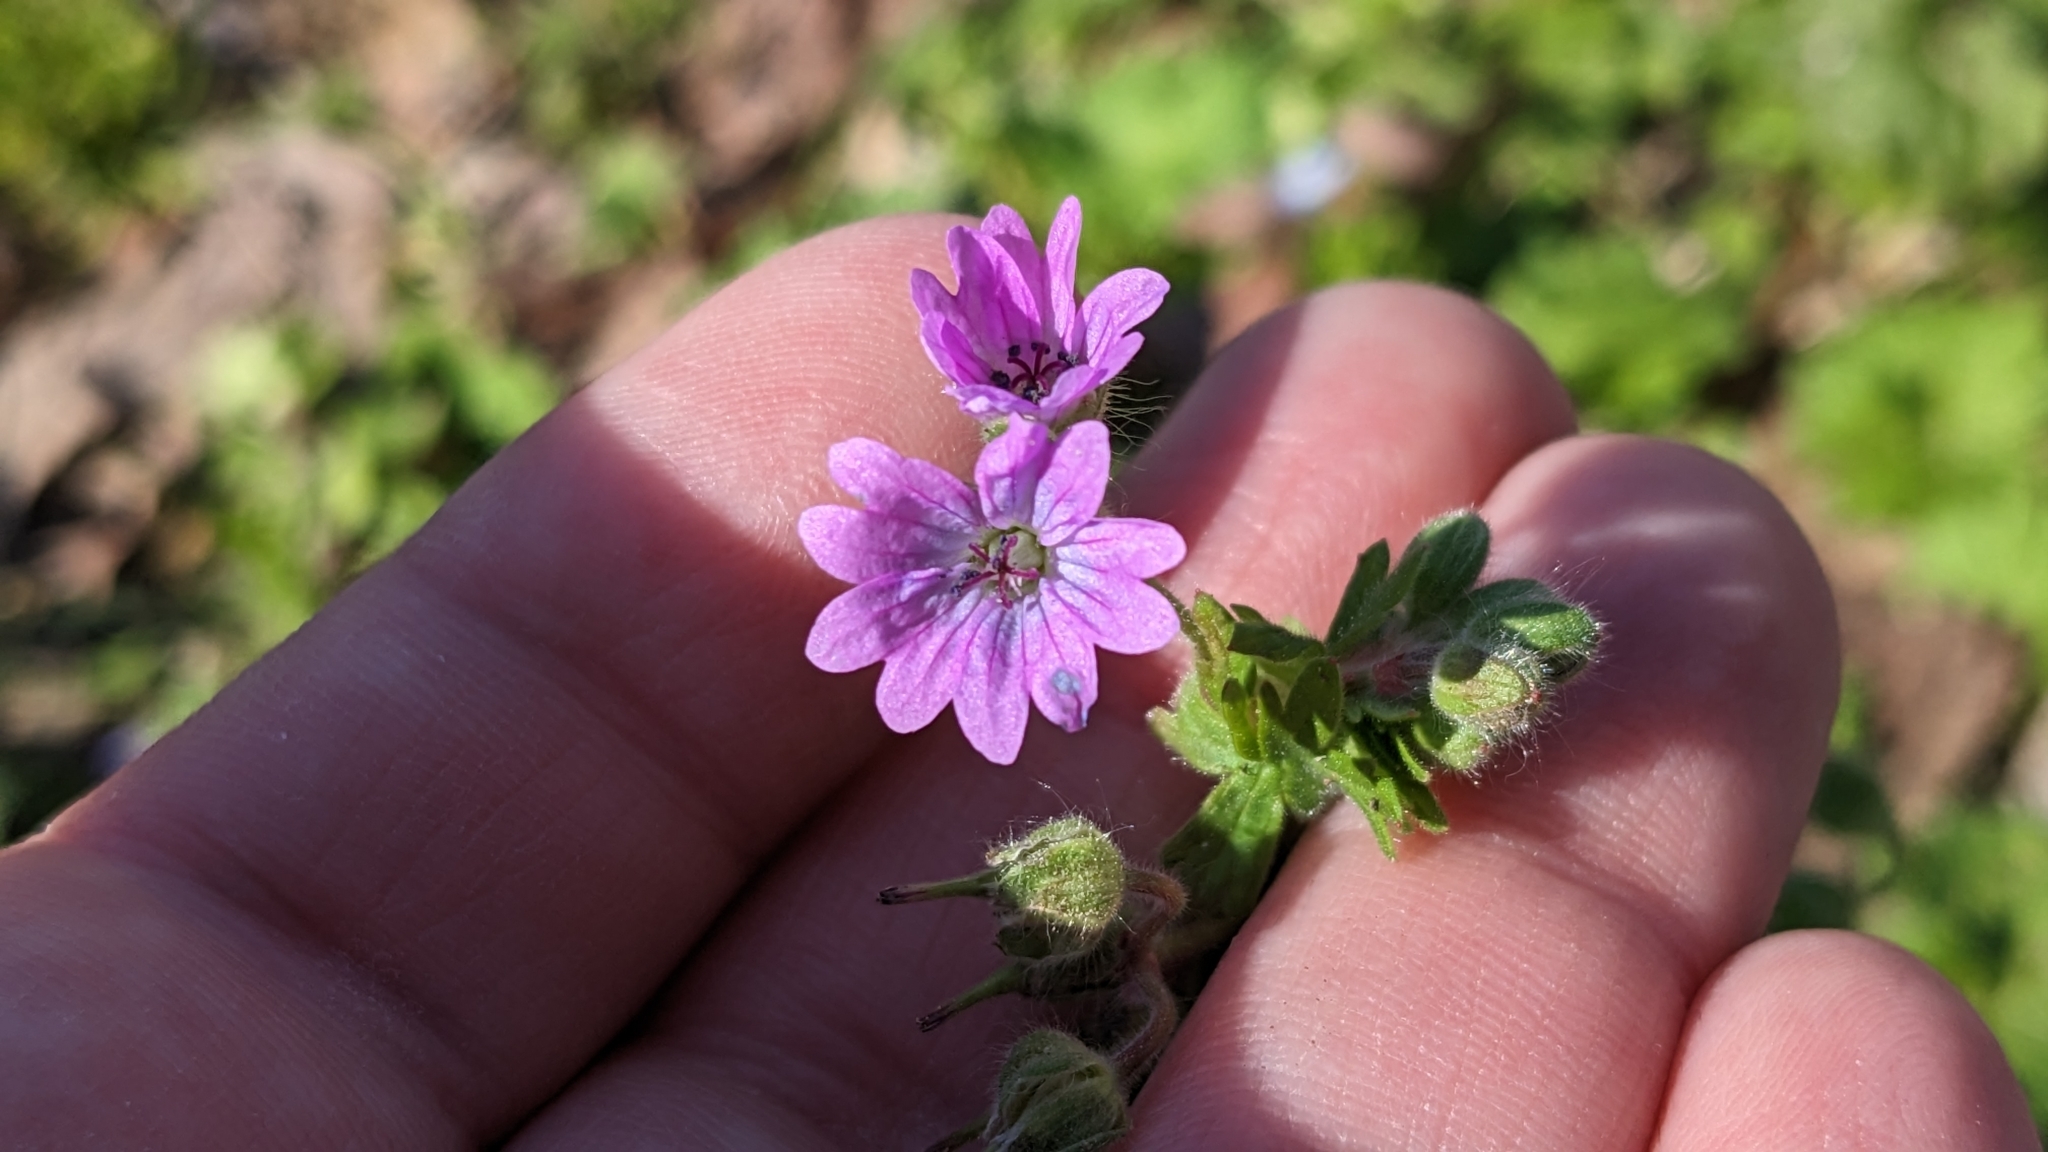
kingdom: Plantae
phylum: Tracheophyta
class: Magnoliopsida
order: Geraniales
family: Geraniaceae
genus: Geranium
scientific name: Geranium molle
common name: Dove's-foot crane's-bill
